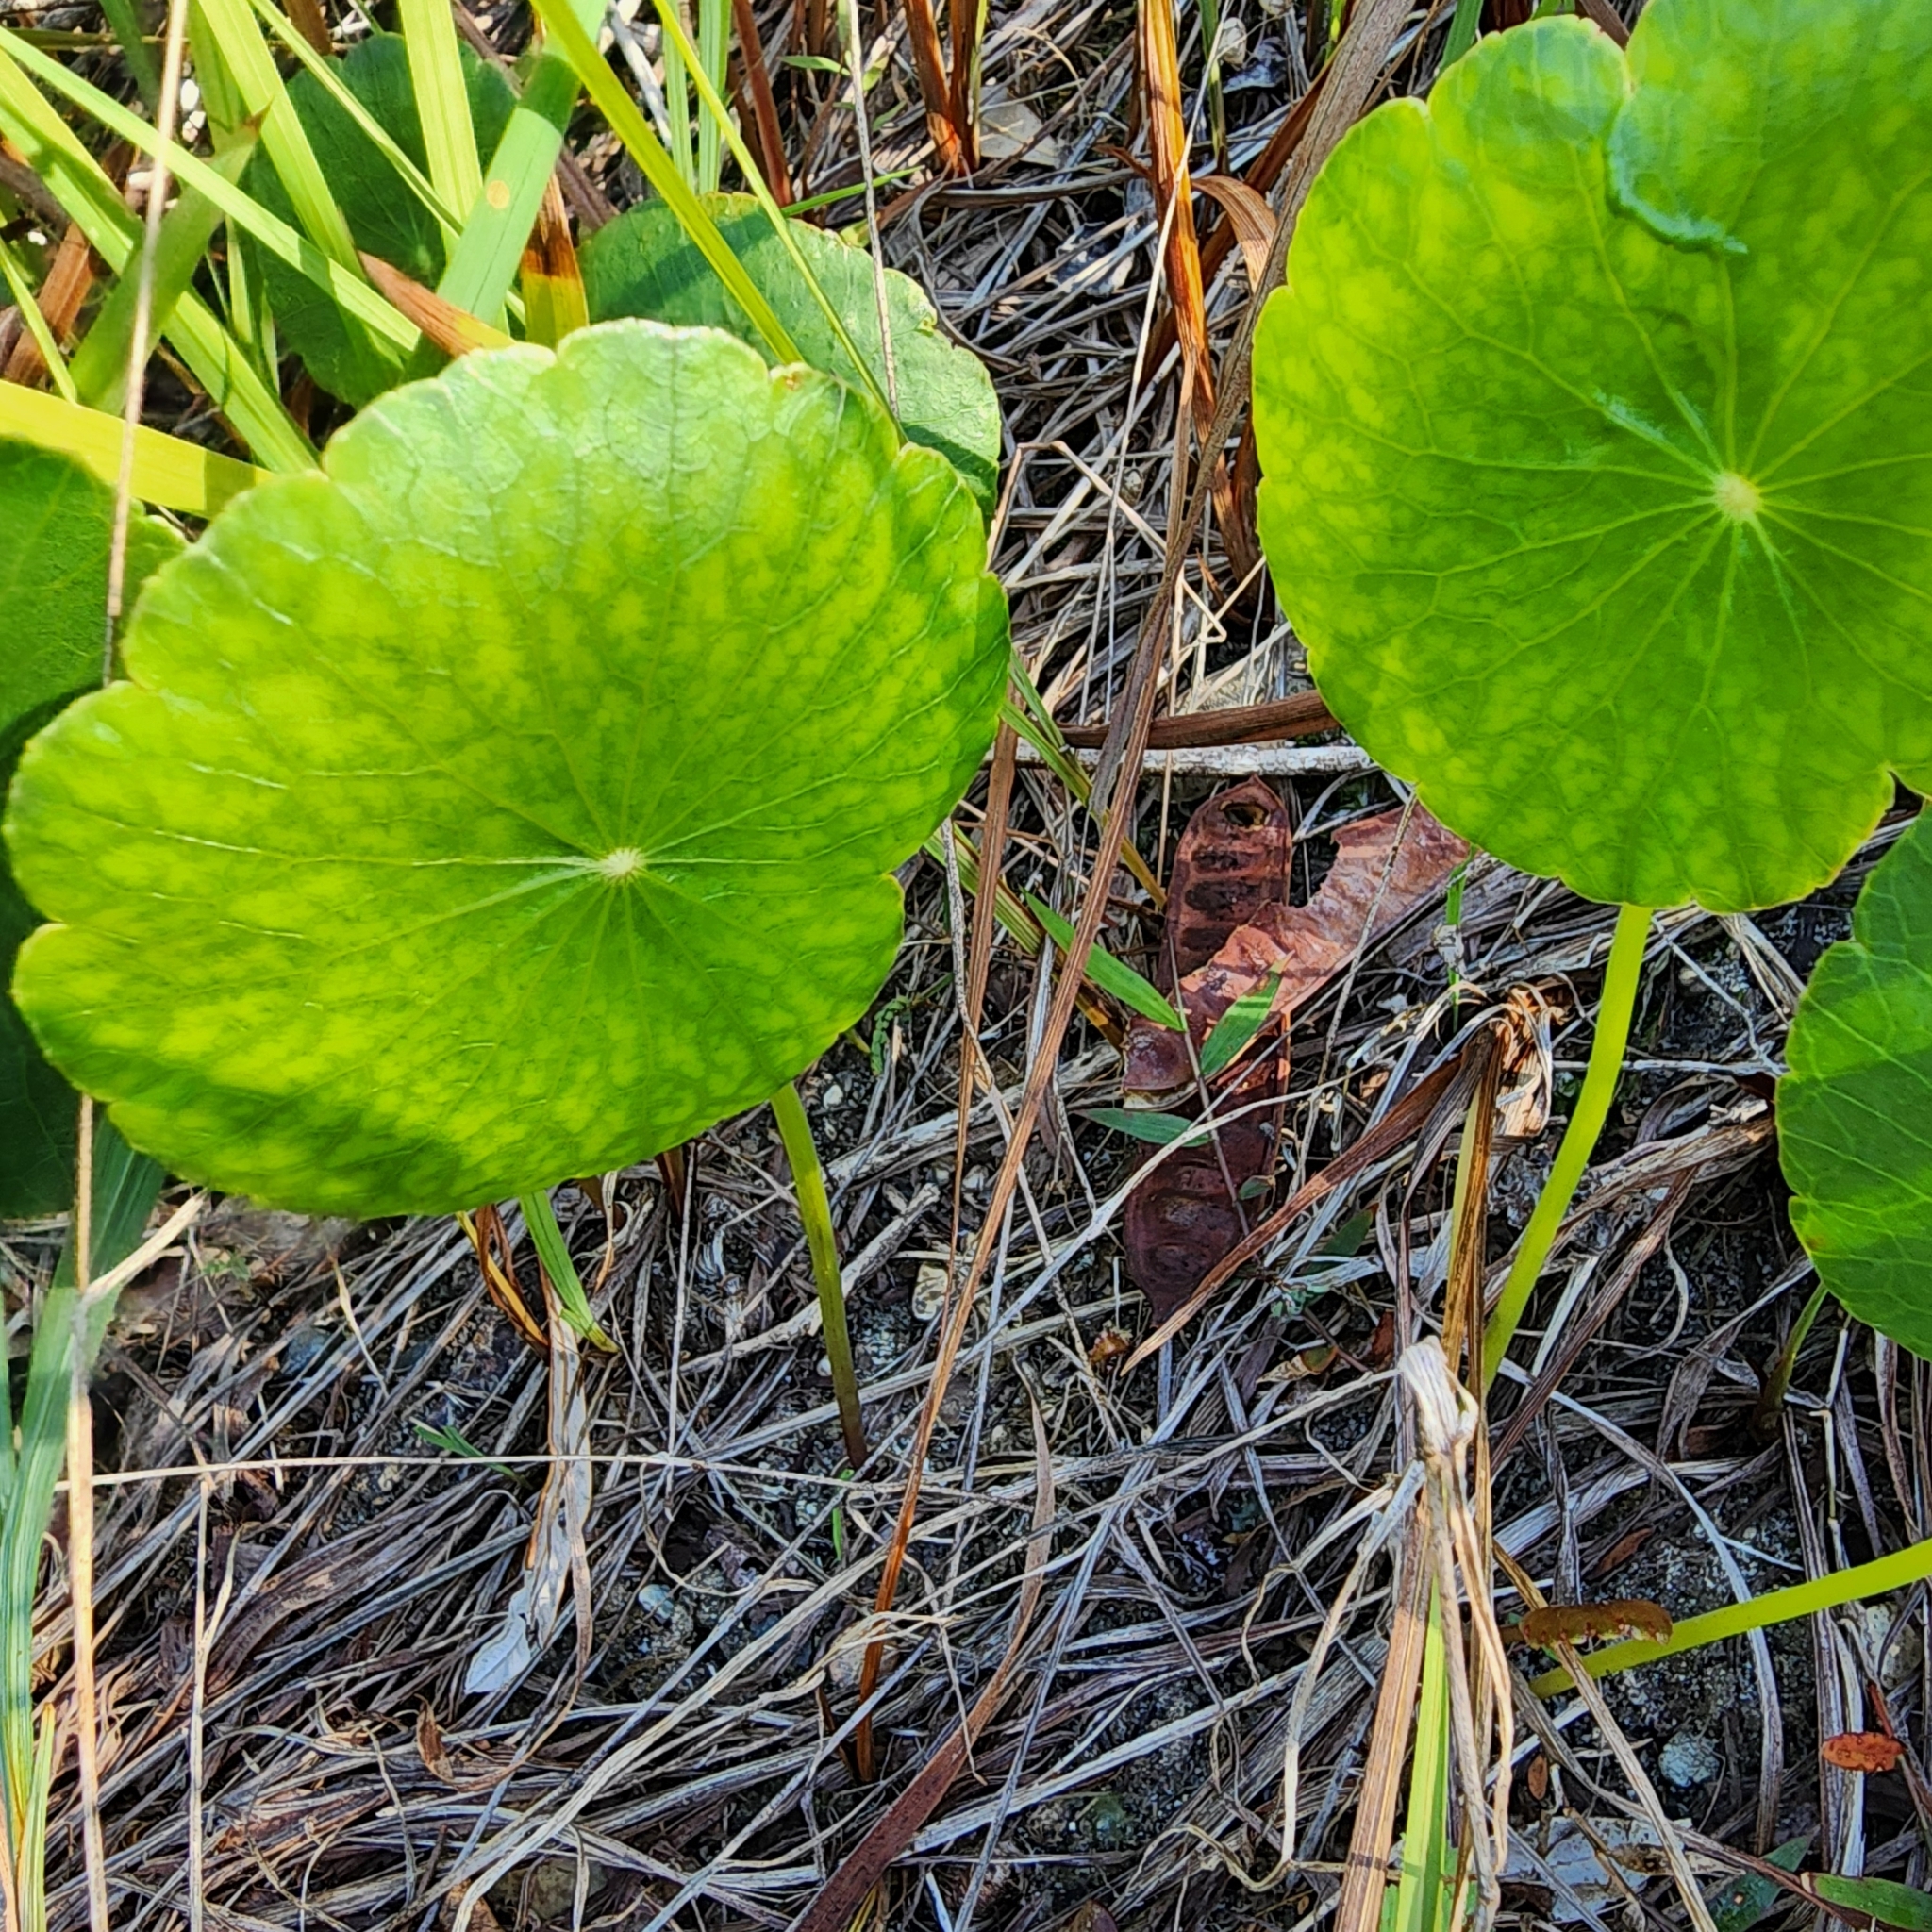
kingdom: Plantae
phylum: Tracheophyta
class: Magnoliopsida
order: Apiales
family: Araliaceae
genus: Hydrocotyle
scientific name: Hydrocotyle bonariensis
